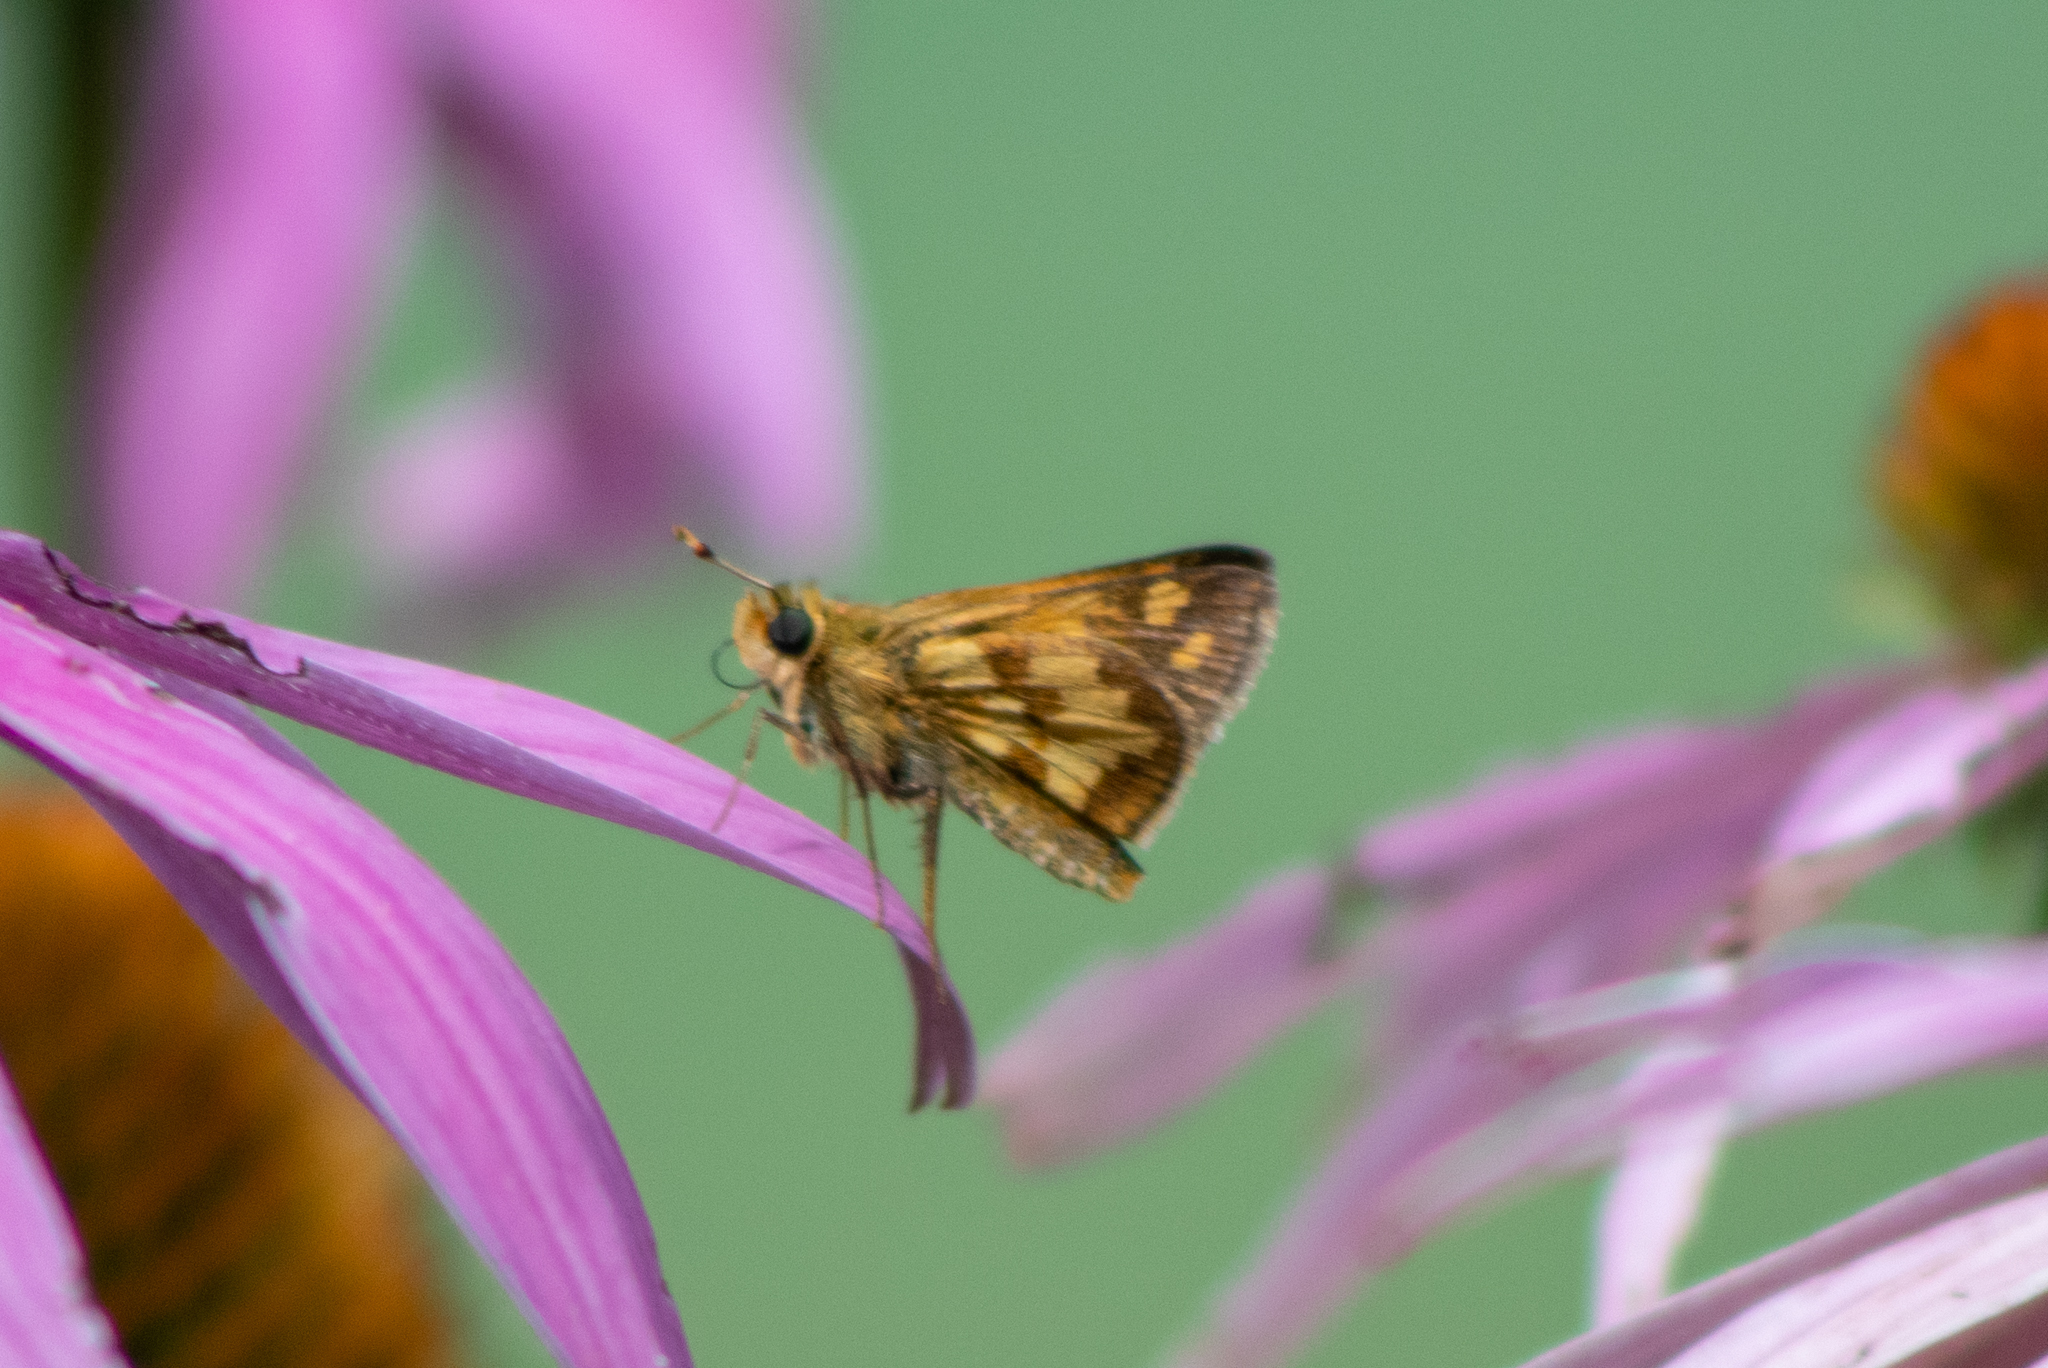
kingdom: Animalia
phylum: Arthropoda
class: Insecta
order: Lepidoptera
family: Hesperiidae
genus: Polites
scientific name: Polites coras
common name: Peck's skipper
